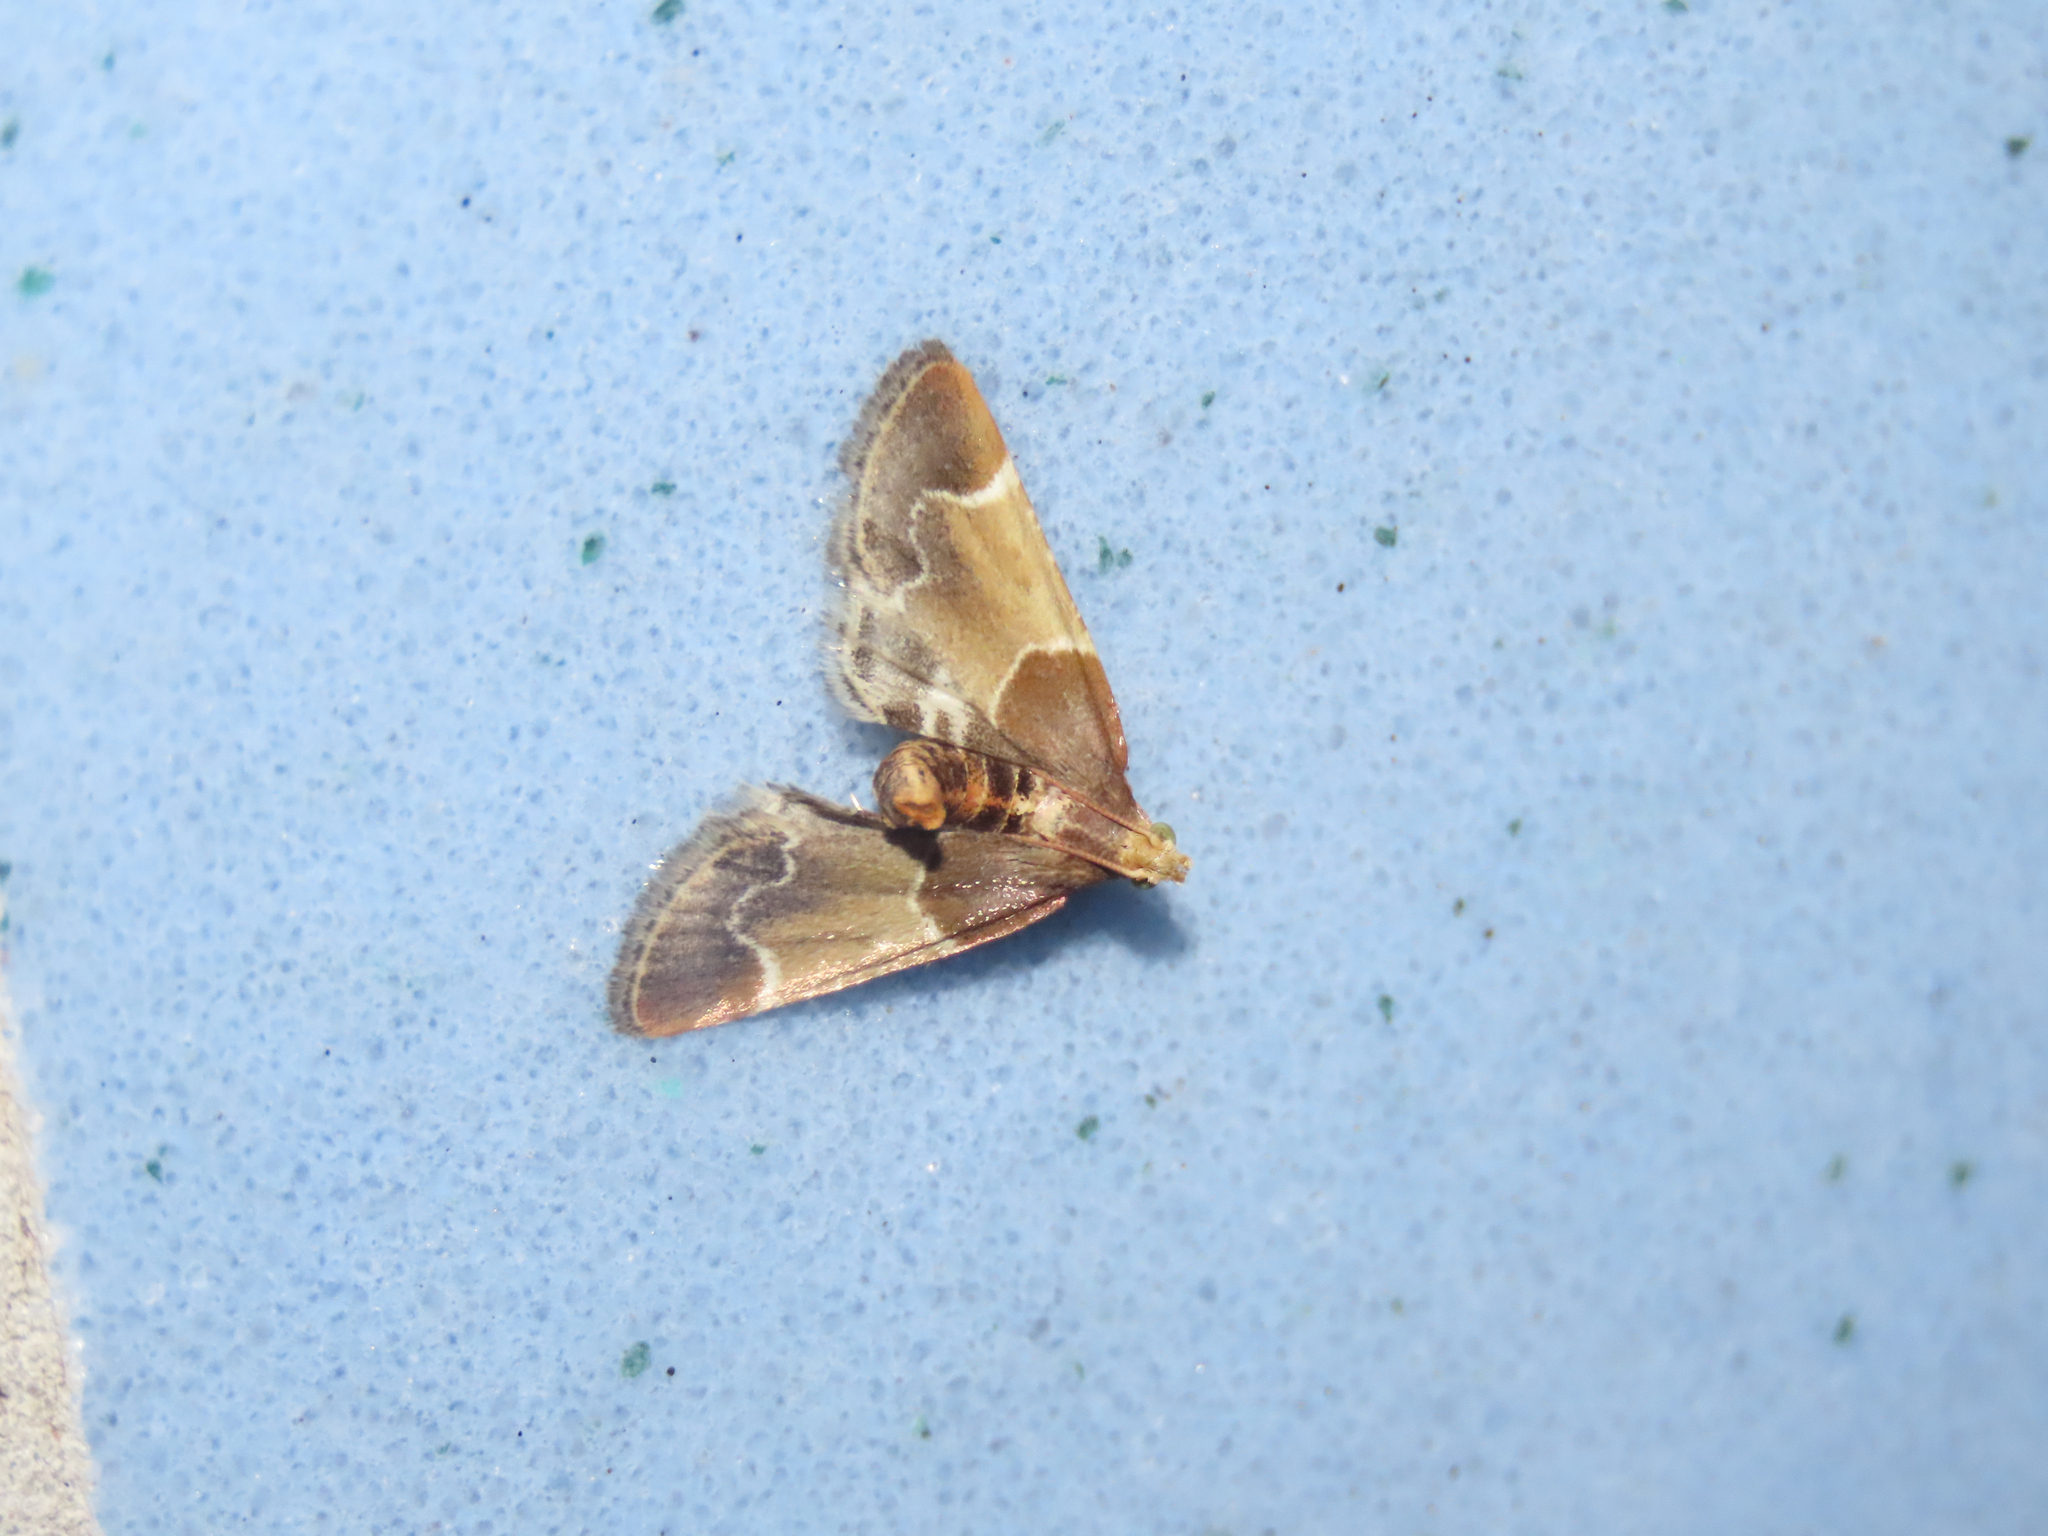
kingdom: Animalia
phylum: Arthropoda
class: Insecta
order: Lepidoptera
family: Pyralidae
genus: Pyralis
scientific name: Pyralis farinalis
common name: Meal moth
